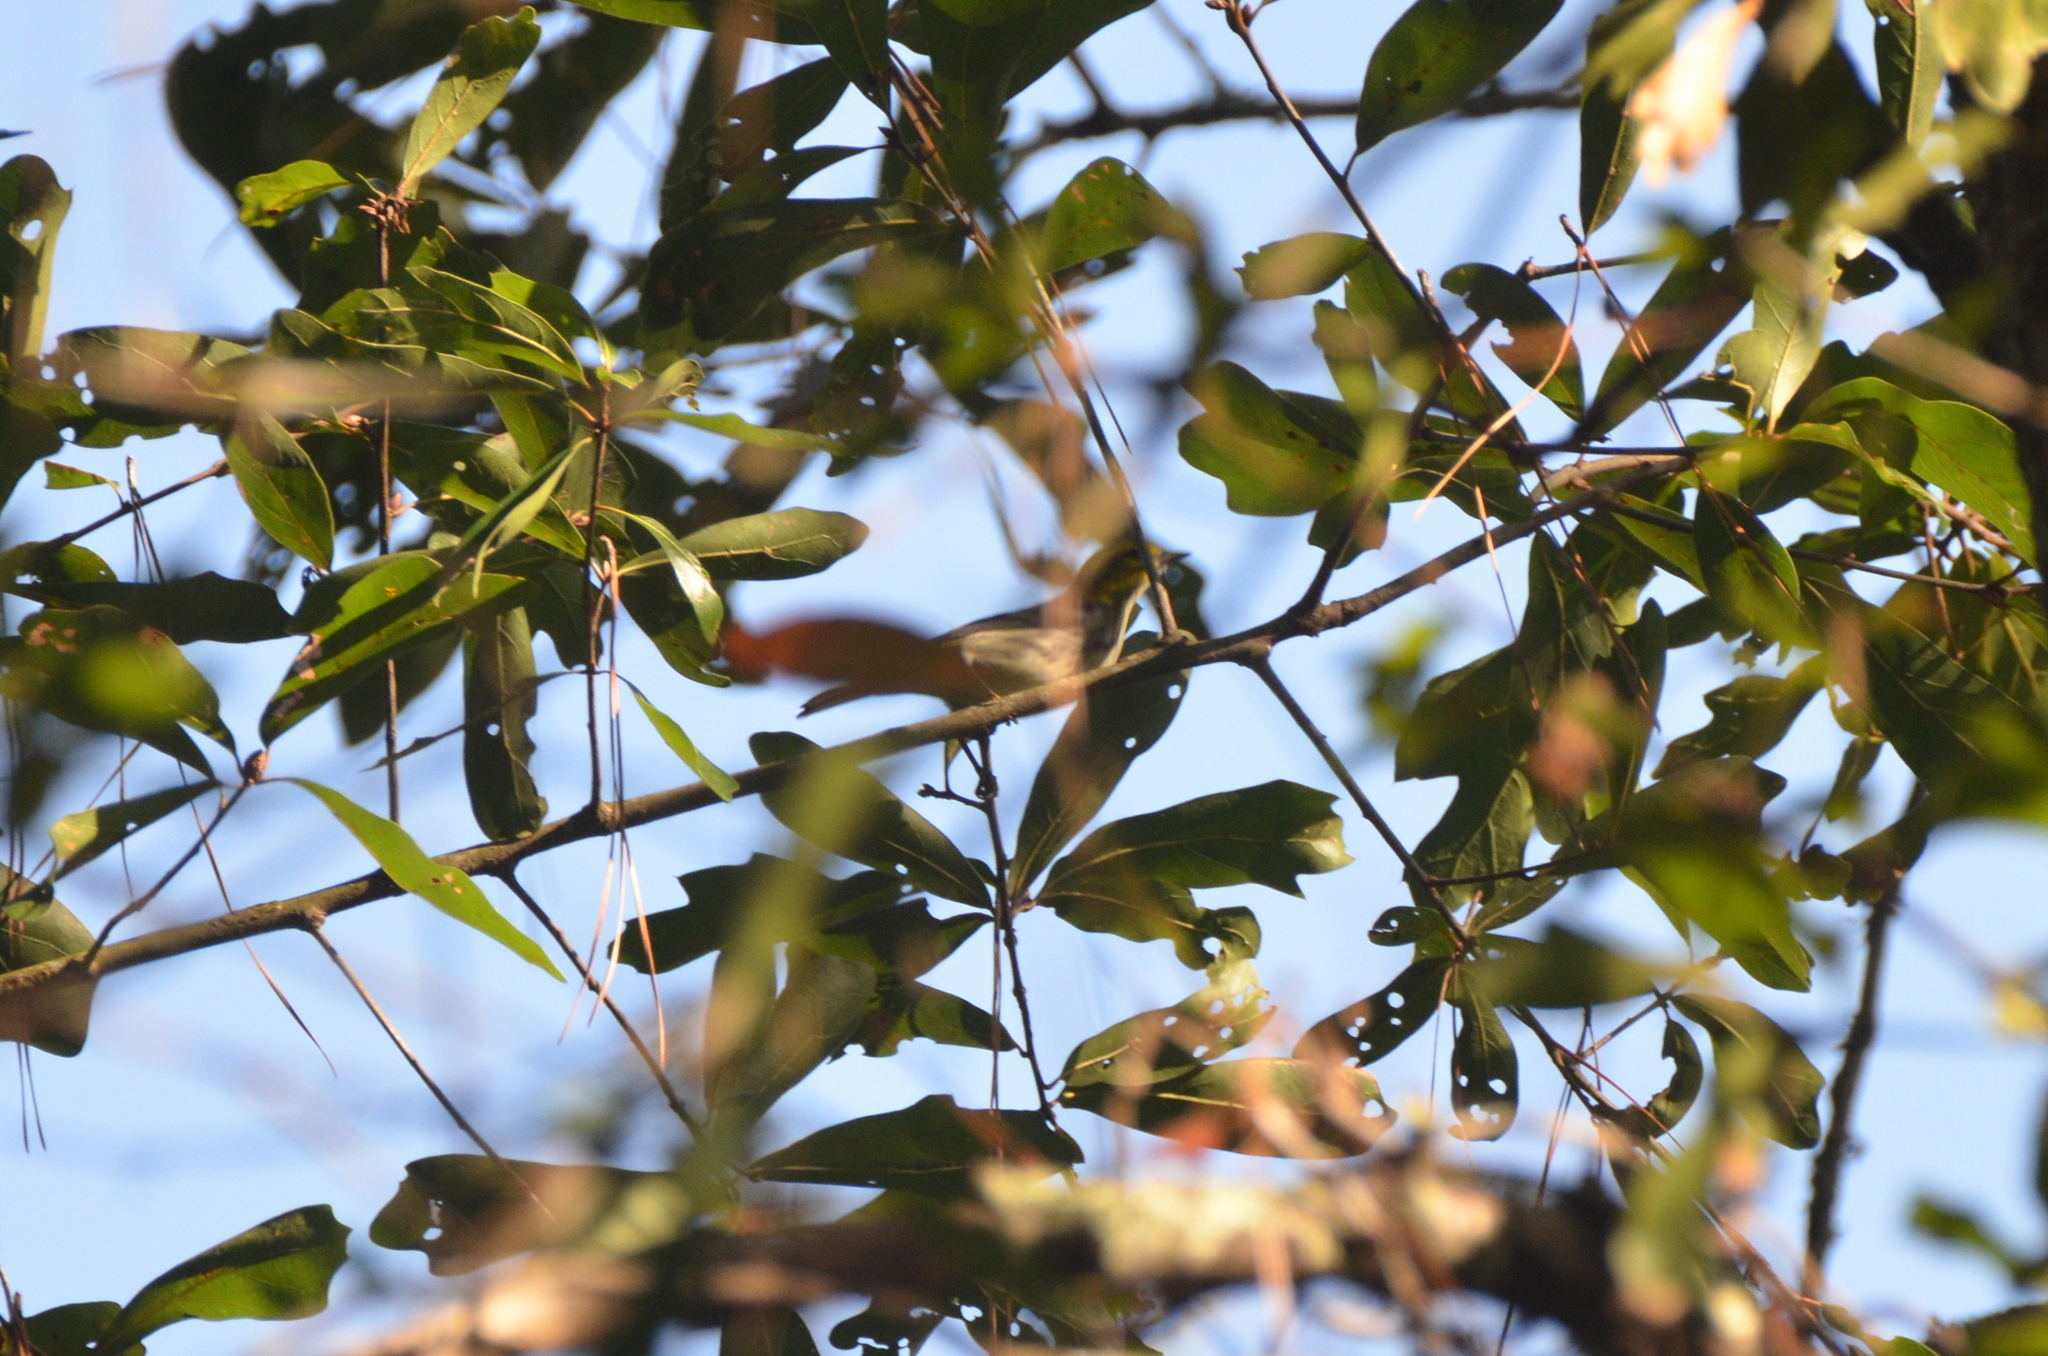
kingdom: Animalia
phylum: Chordata
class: Aves
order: Passeriformes
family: Parulidae
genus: Setophaga
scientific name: Setophaga virens
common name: Black-throated green warbler
